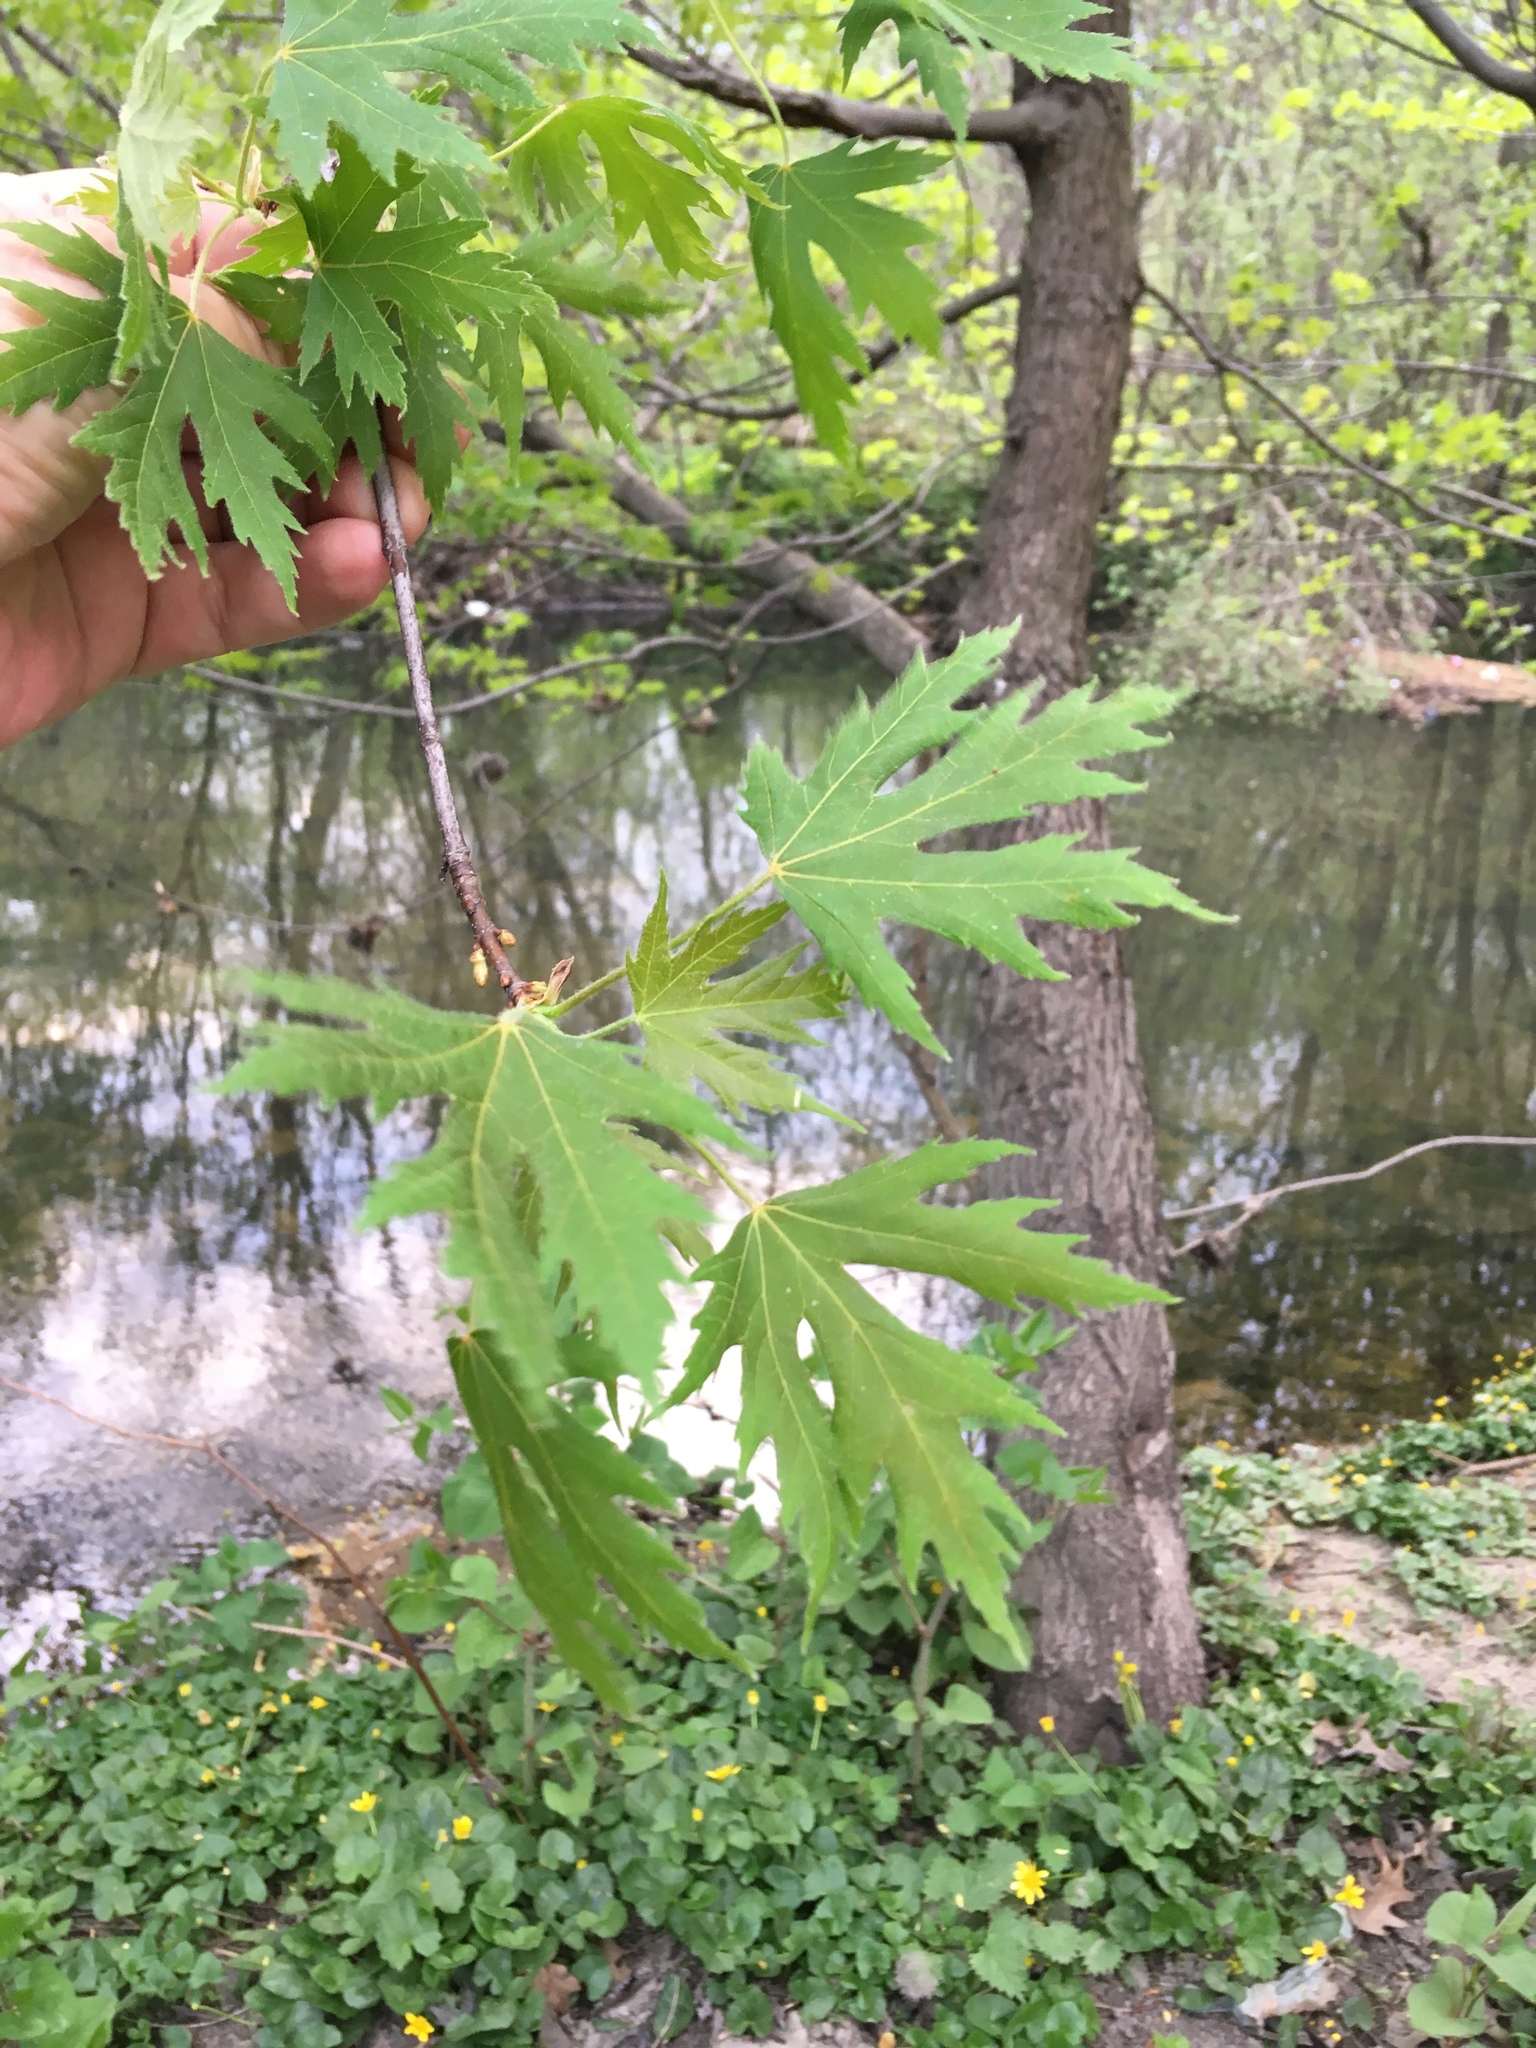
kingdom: Plantae
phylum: Tracheophyta
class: Magnoliopsida
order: Sapindales
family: Sapindaceae
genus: Acer
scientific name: Acer saccharinum
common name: Silver maple
